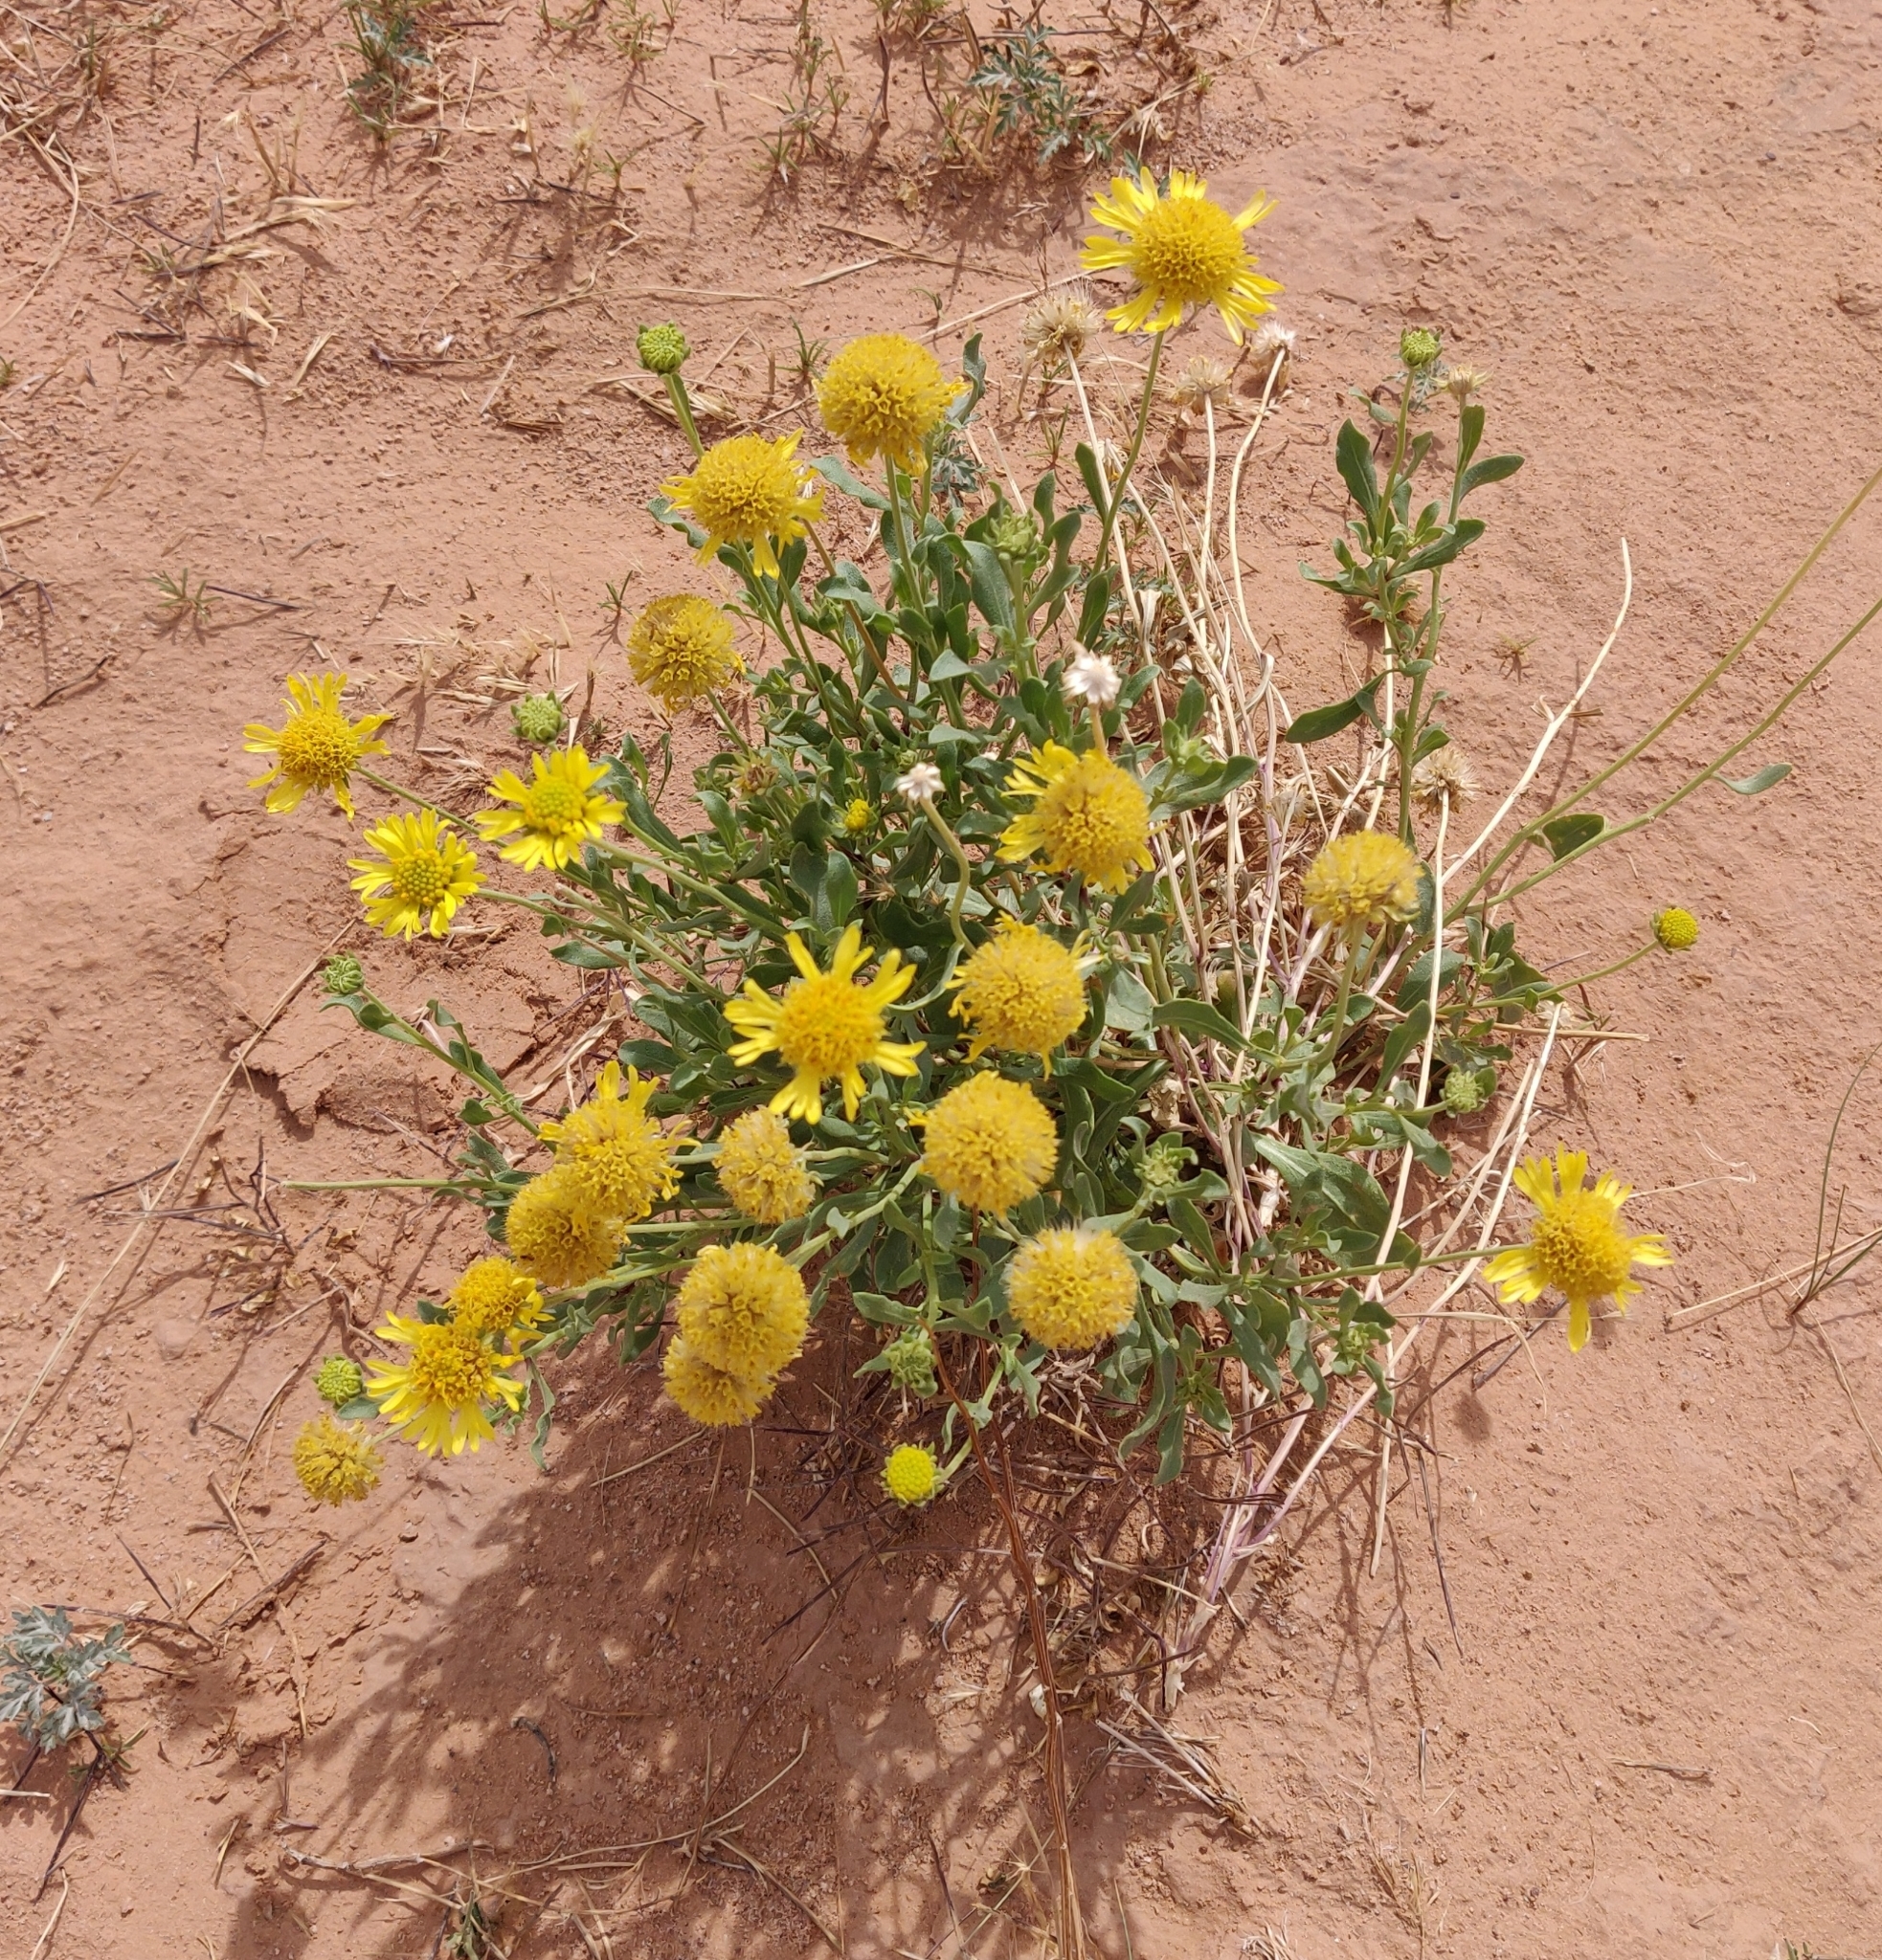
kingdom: Plantae
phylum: Tracheophyta
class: Magnoliopsida
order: Asterales
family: Asteraceae
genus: Gaillardia
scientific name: Gaillardia spathulata
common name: Basin blanket-flower
